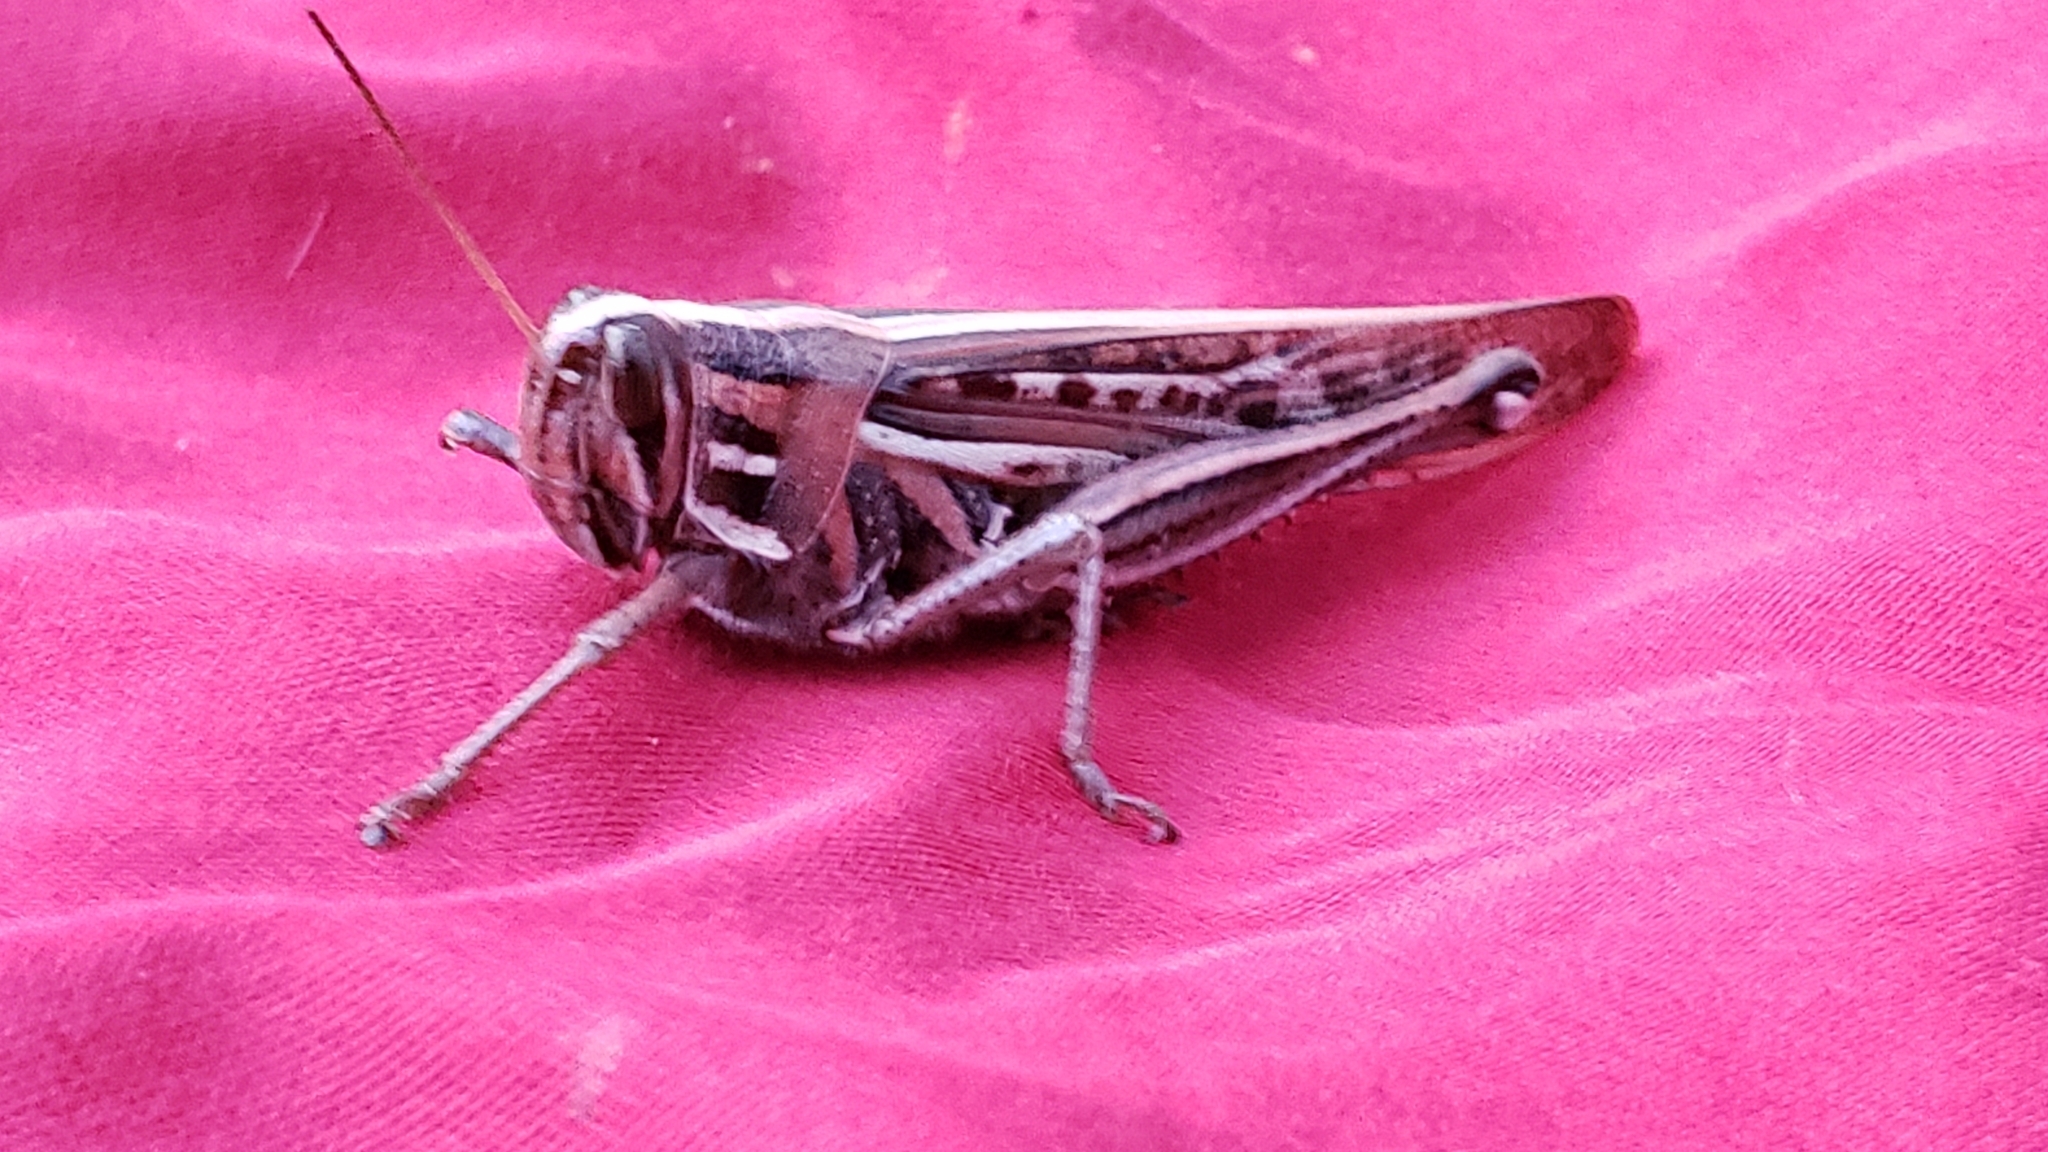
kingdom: Animalia
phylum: Arthropoda
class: Insecta
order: Orthoptera
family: Acrididae
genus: Schistocerca
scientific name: Schistocerca americana
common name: American bird locust
